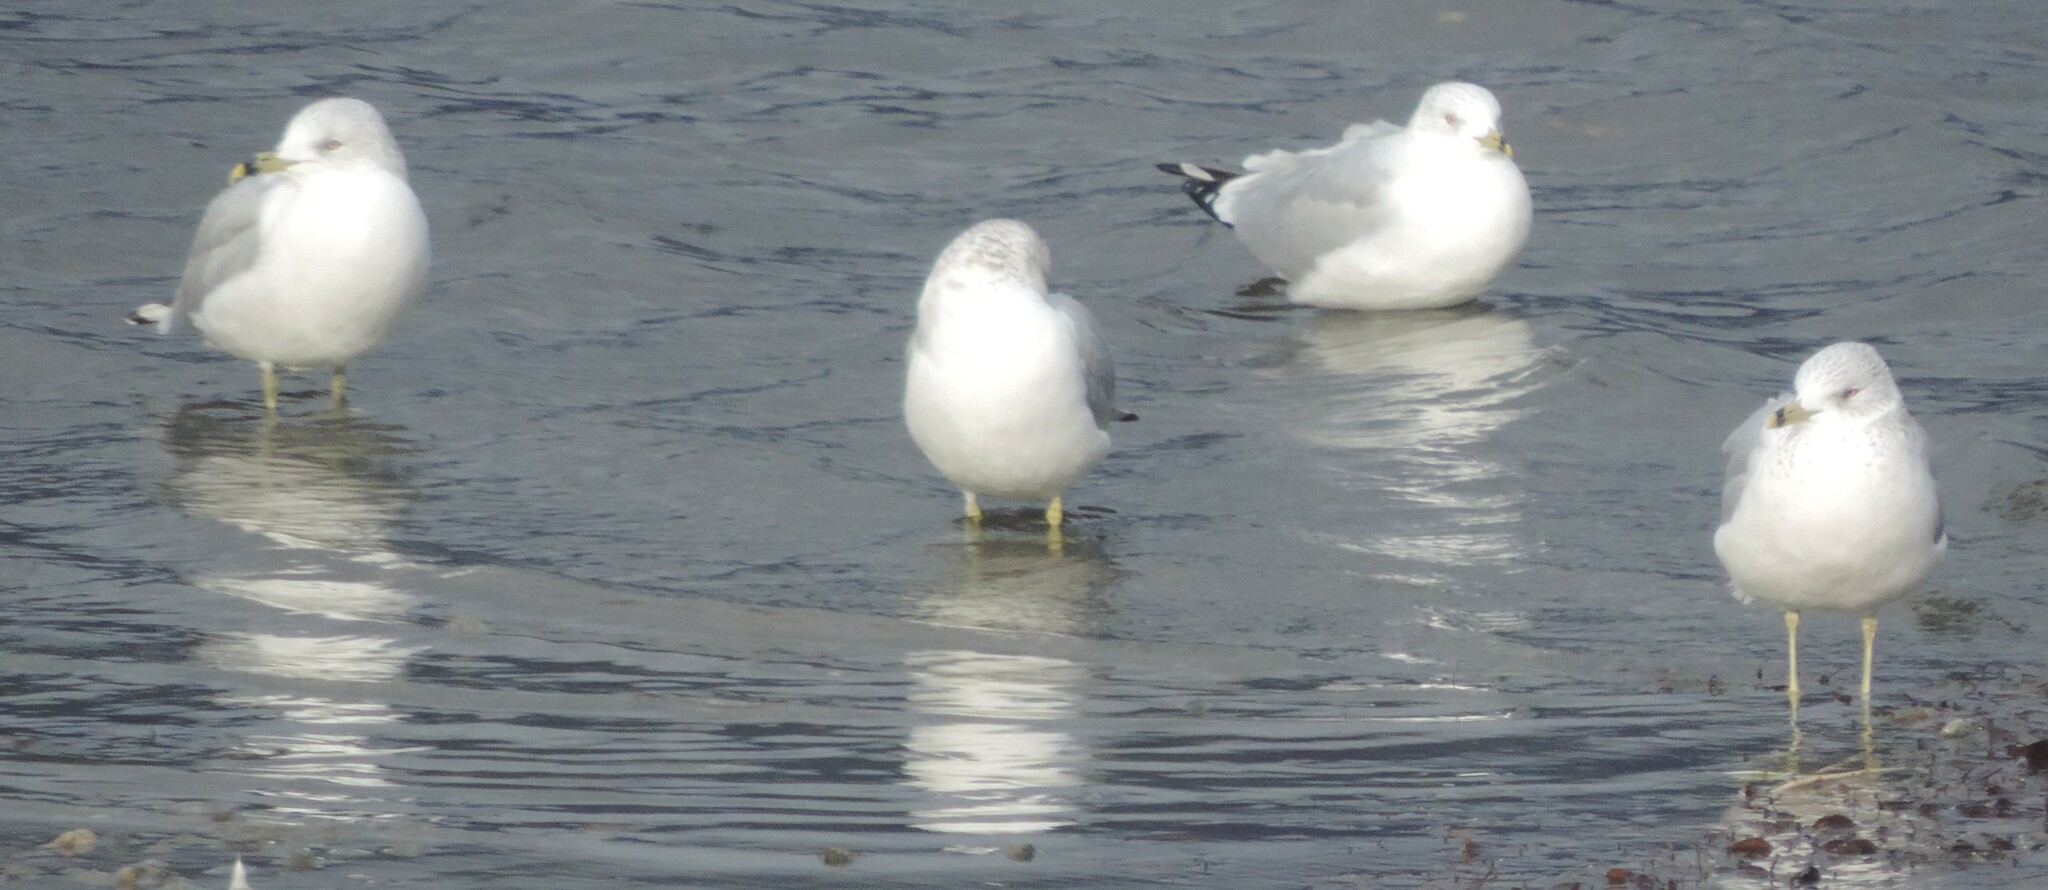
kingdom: Animalia
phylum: Chordata
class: Aves
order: Charadriiformes
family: Laridae
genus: Larus
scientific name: Larus delawarensis
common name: Ring-billed gull
